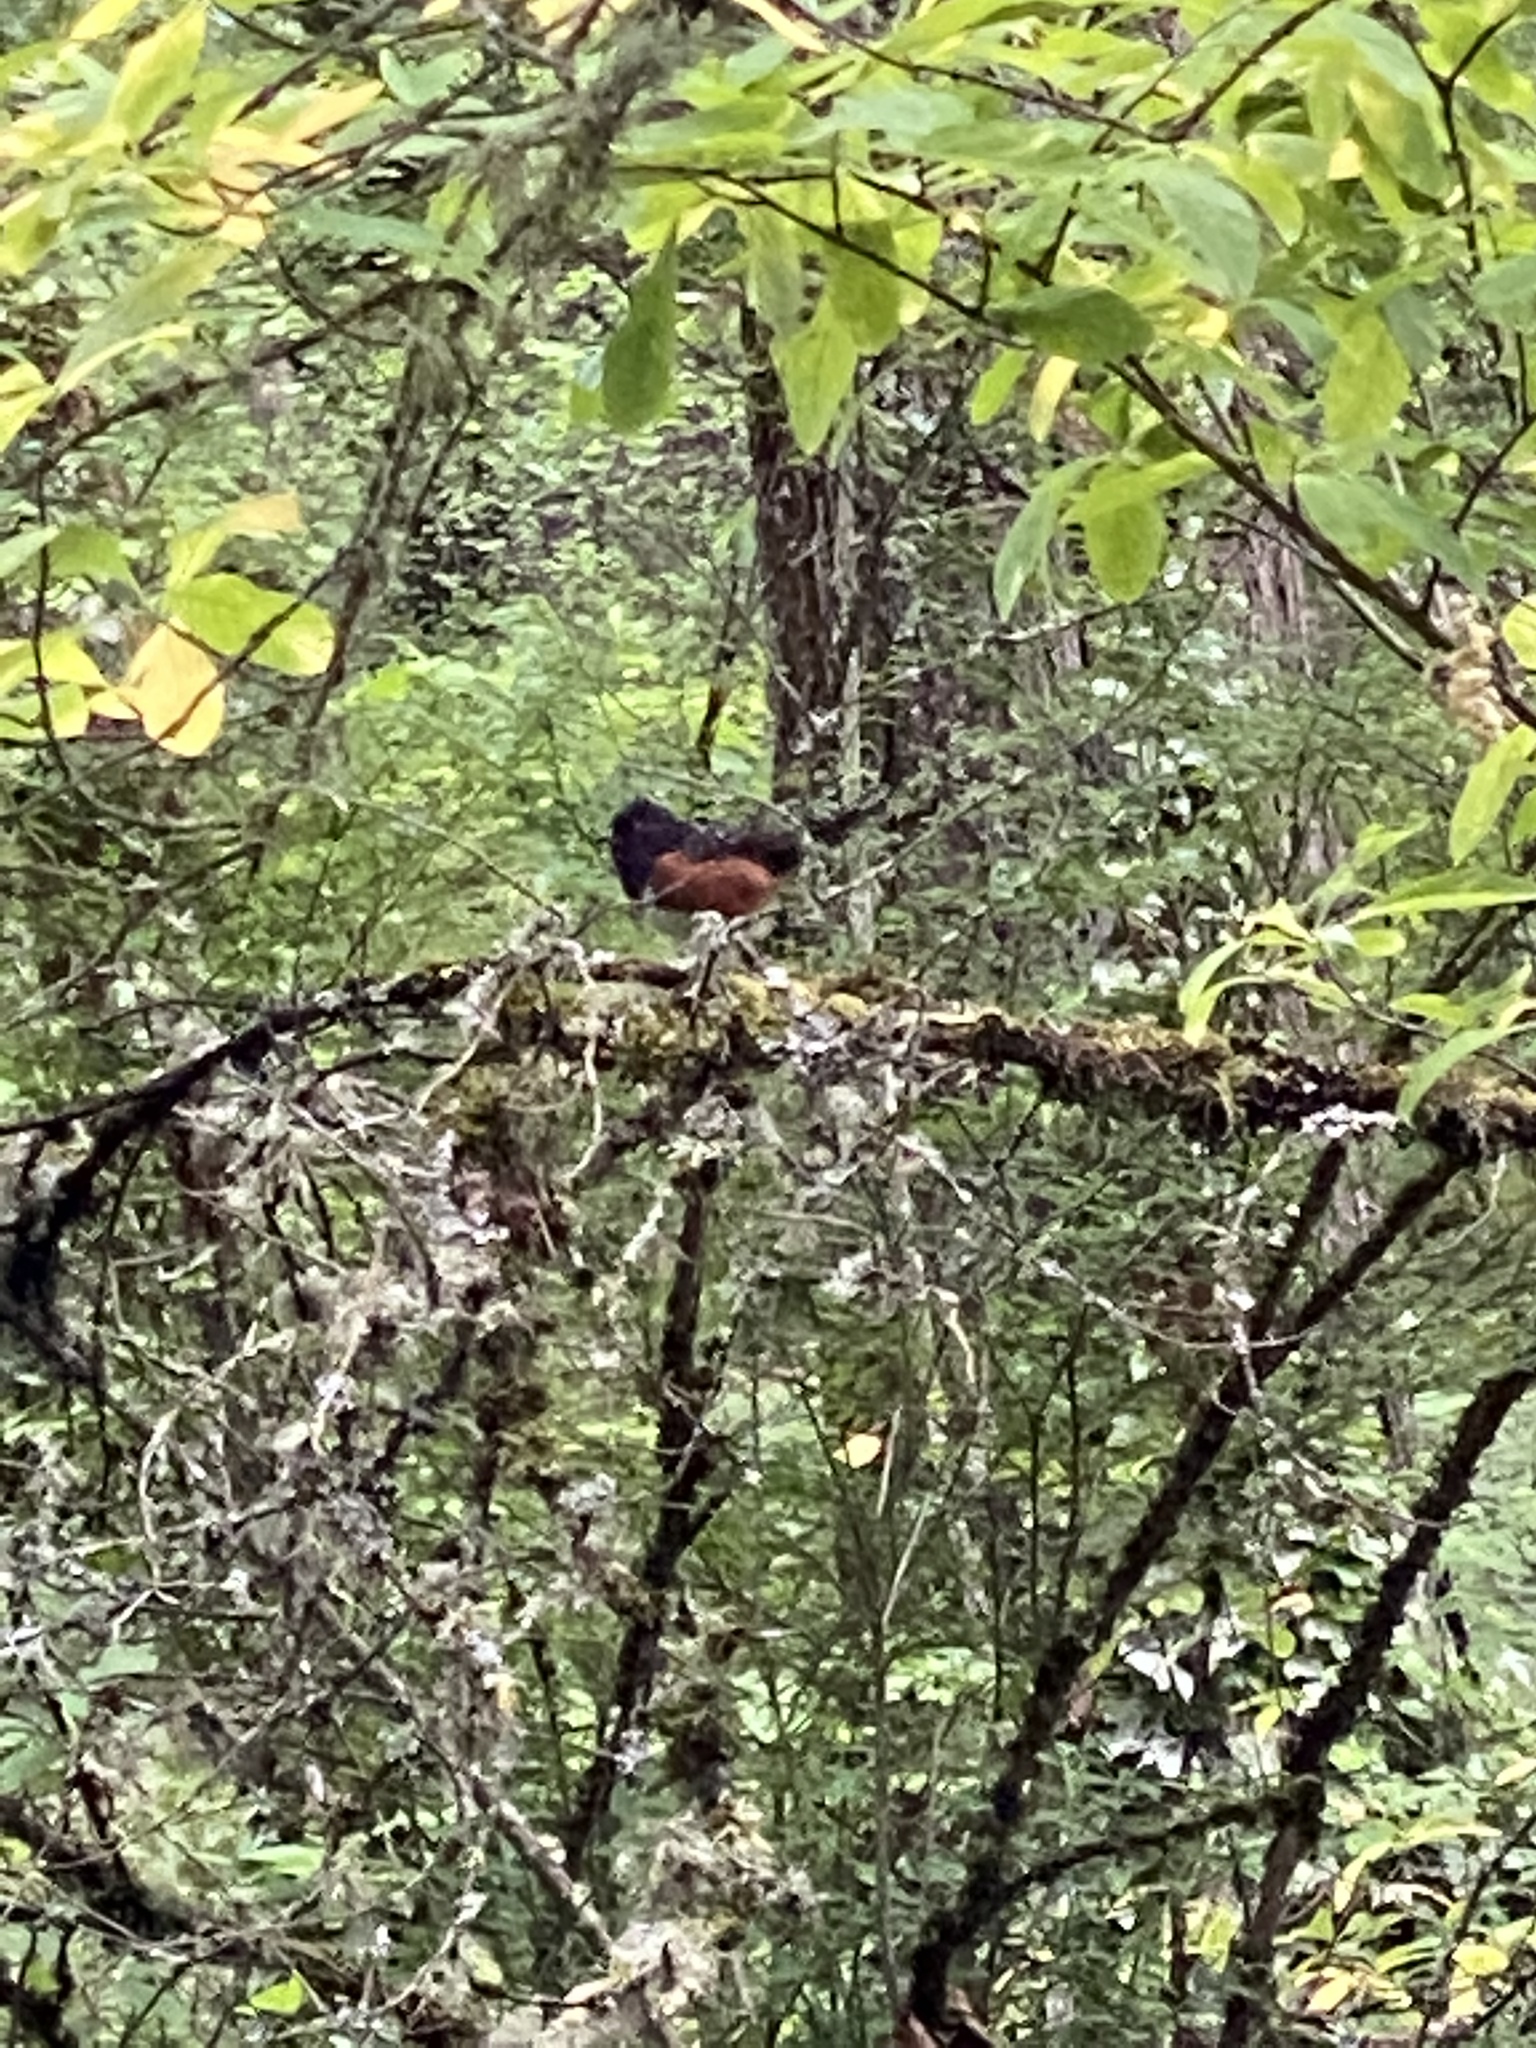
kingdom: Animalia
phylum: Chordata
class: Aves
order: Passeriformes
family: Passerellidae
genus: Pipilo
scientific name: Pipilo maculatus
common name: Spotted towhee
